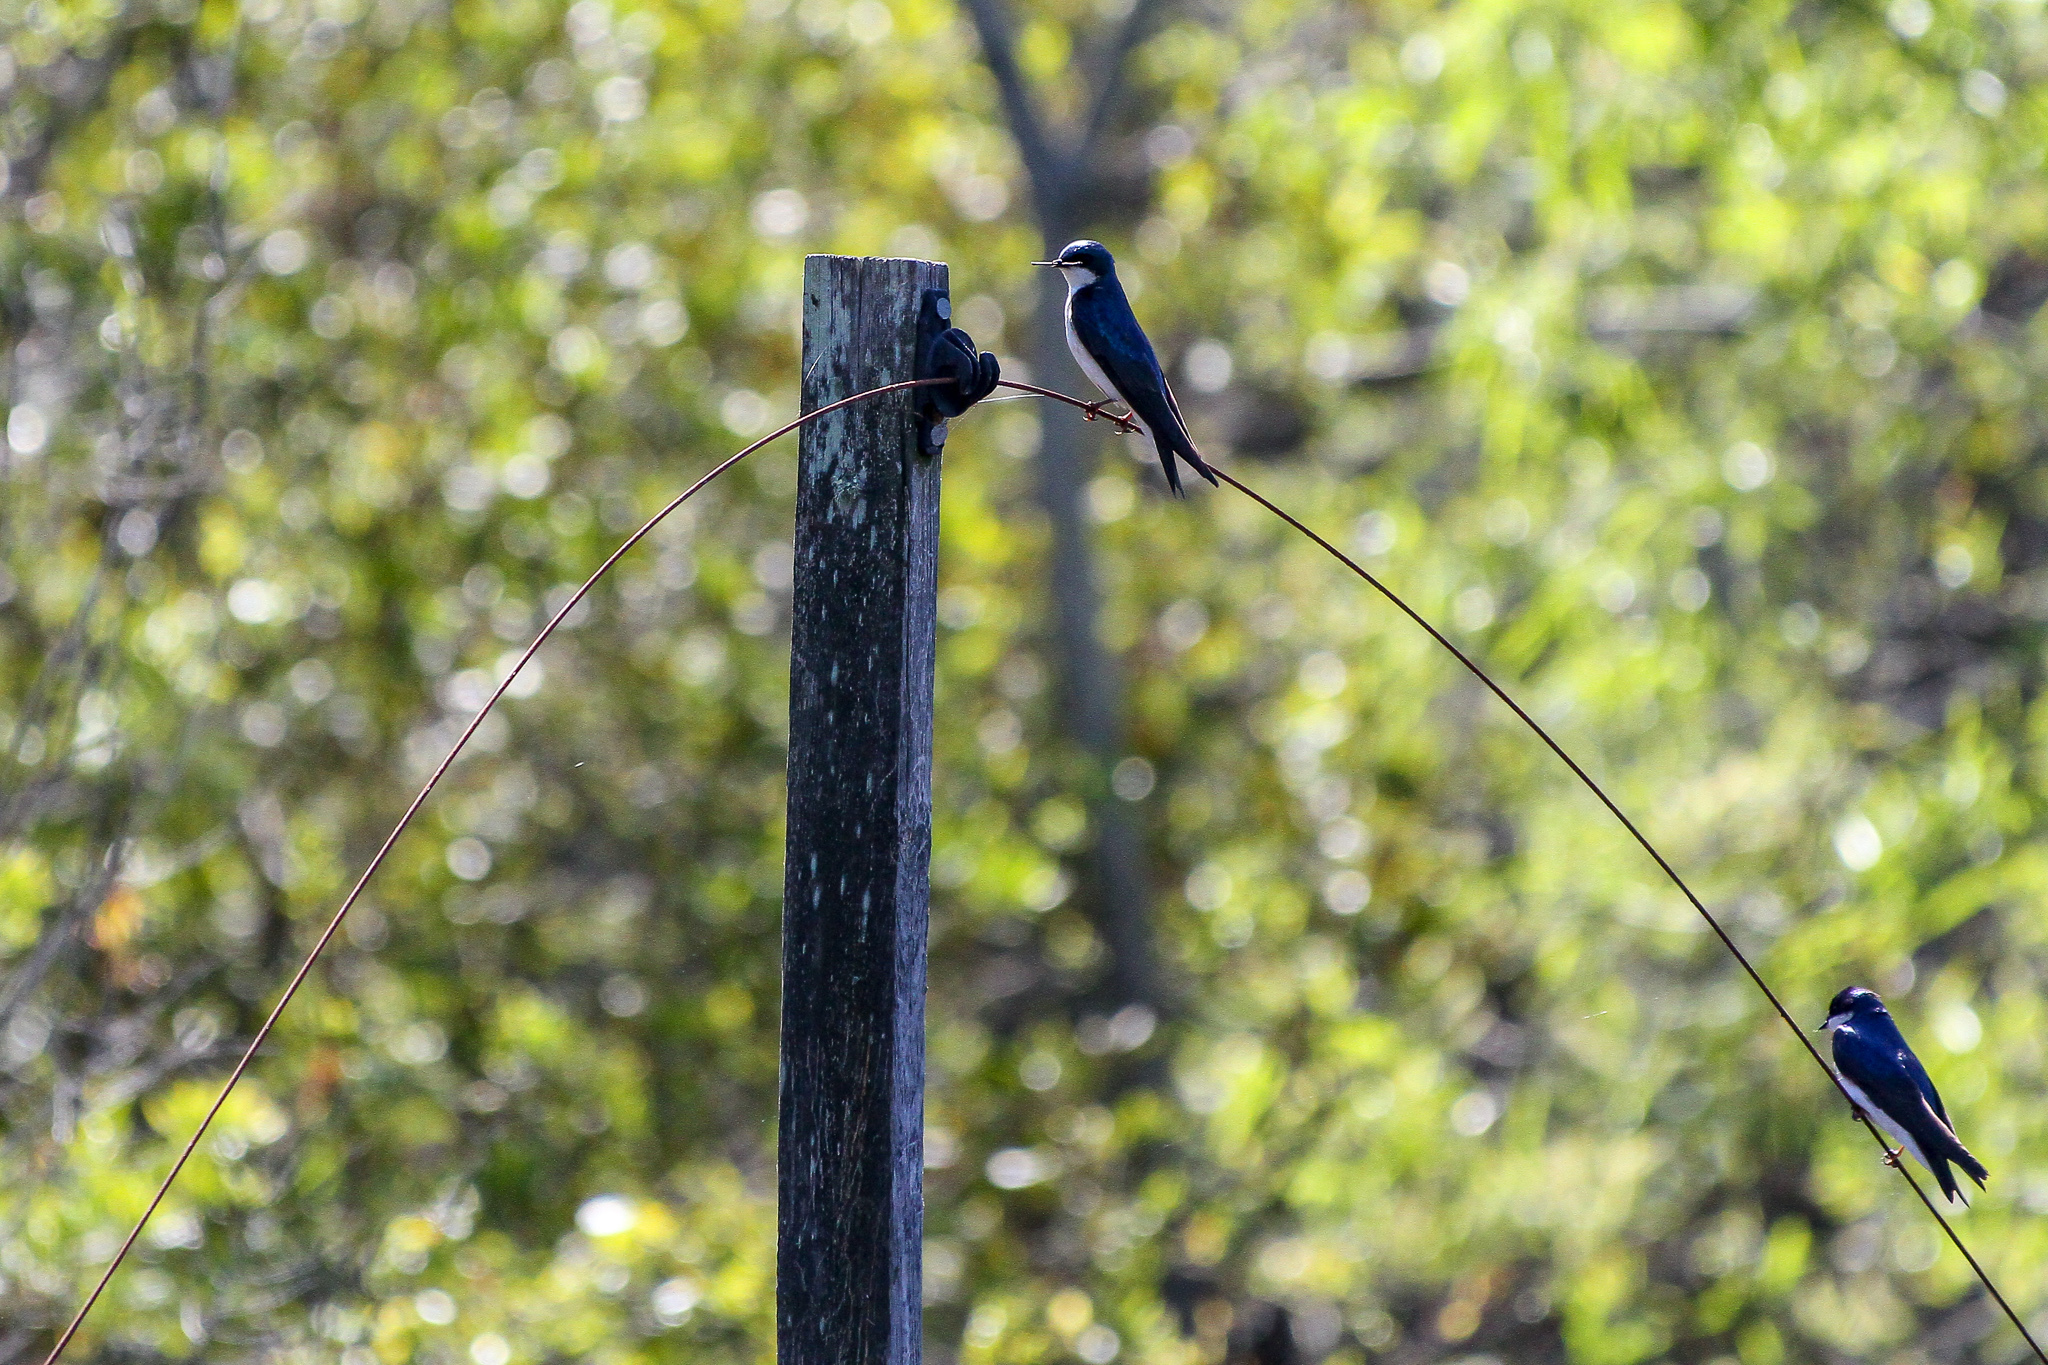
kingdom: Animalia
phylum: Chordata
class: Aves
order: Passeriformes
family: Hirundinidae
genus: Tachycineta
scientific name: Tachycineta bicolor
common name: Tree swallow
